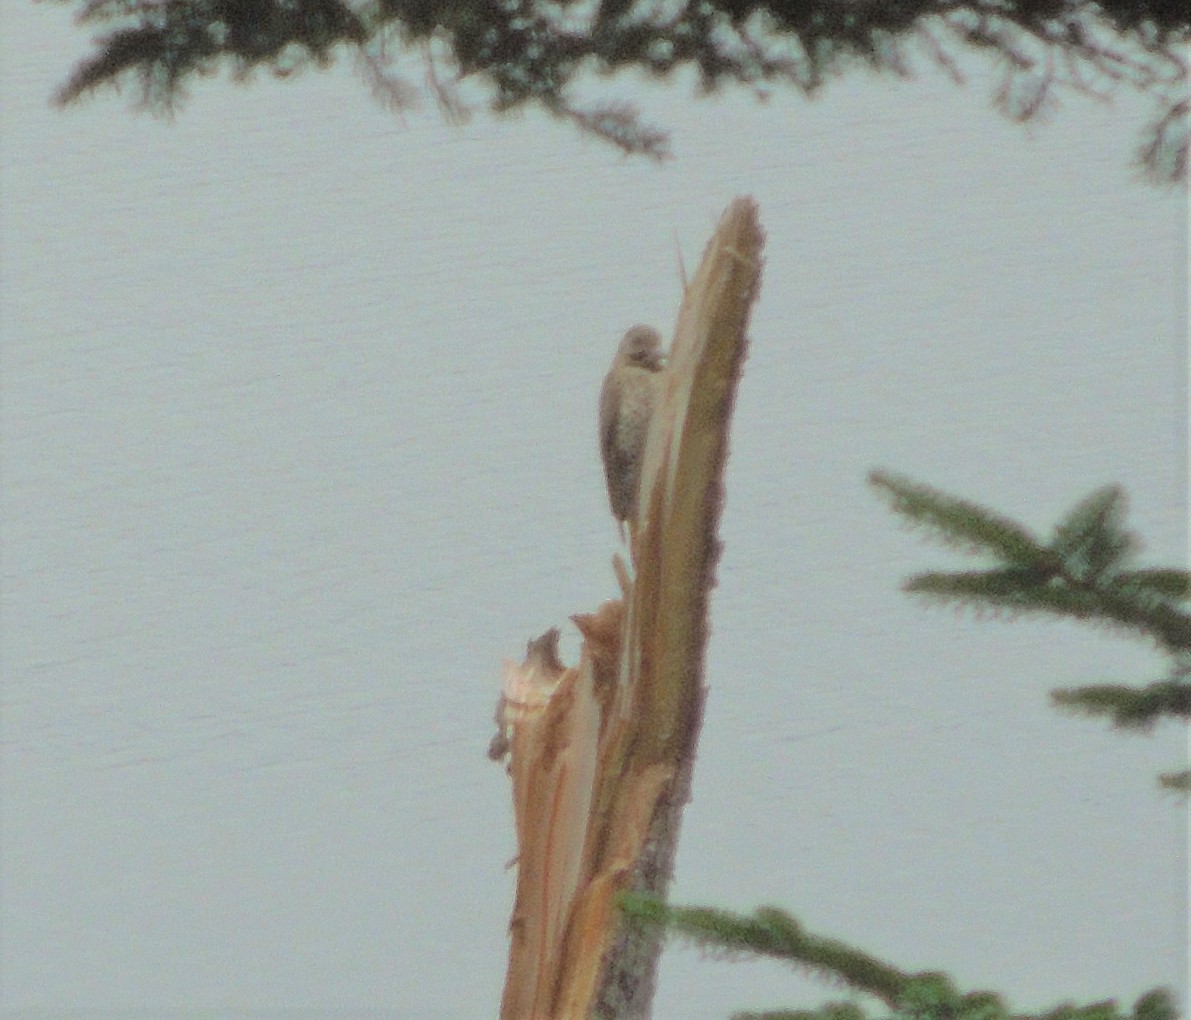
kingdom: Animalia
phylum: Chordata
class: Aves
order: Piciformes
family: Picidae
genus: Colaptes
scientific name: Colaptes auratus
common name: Northern flicker
